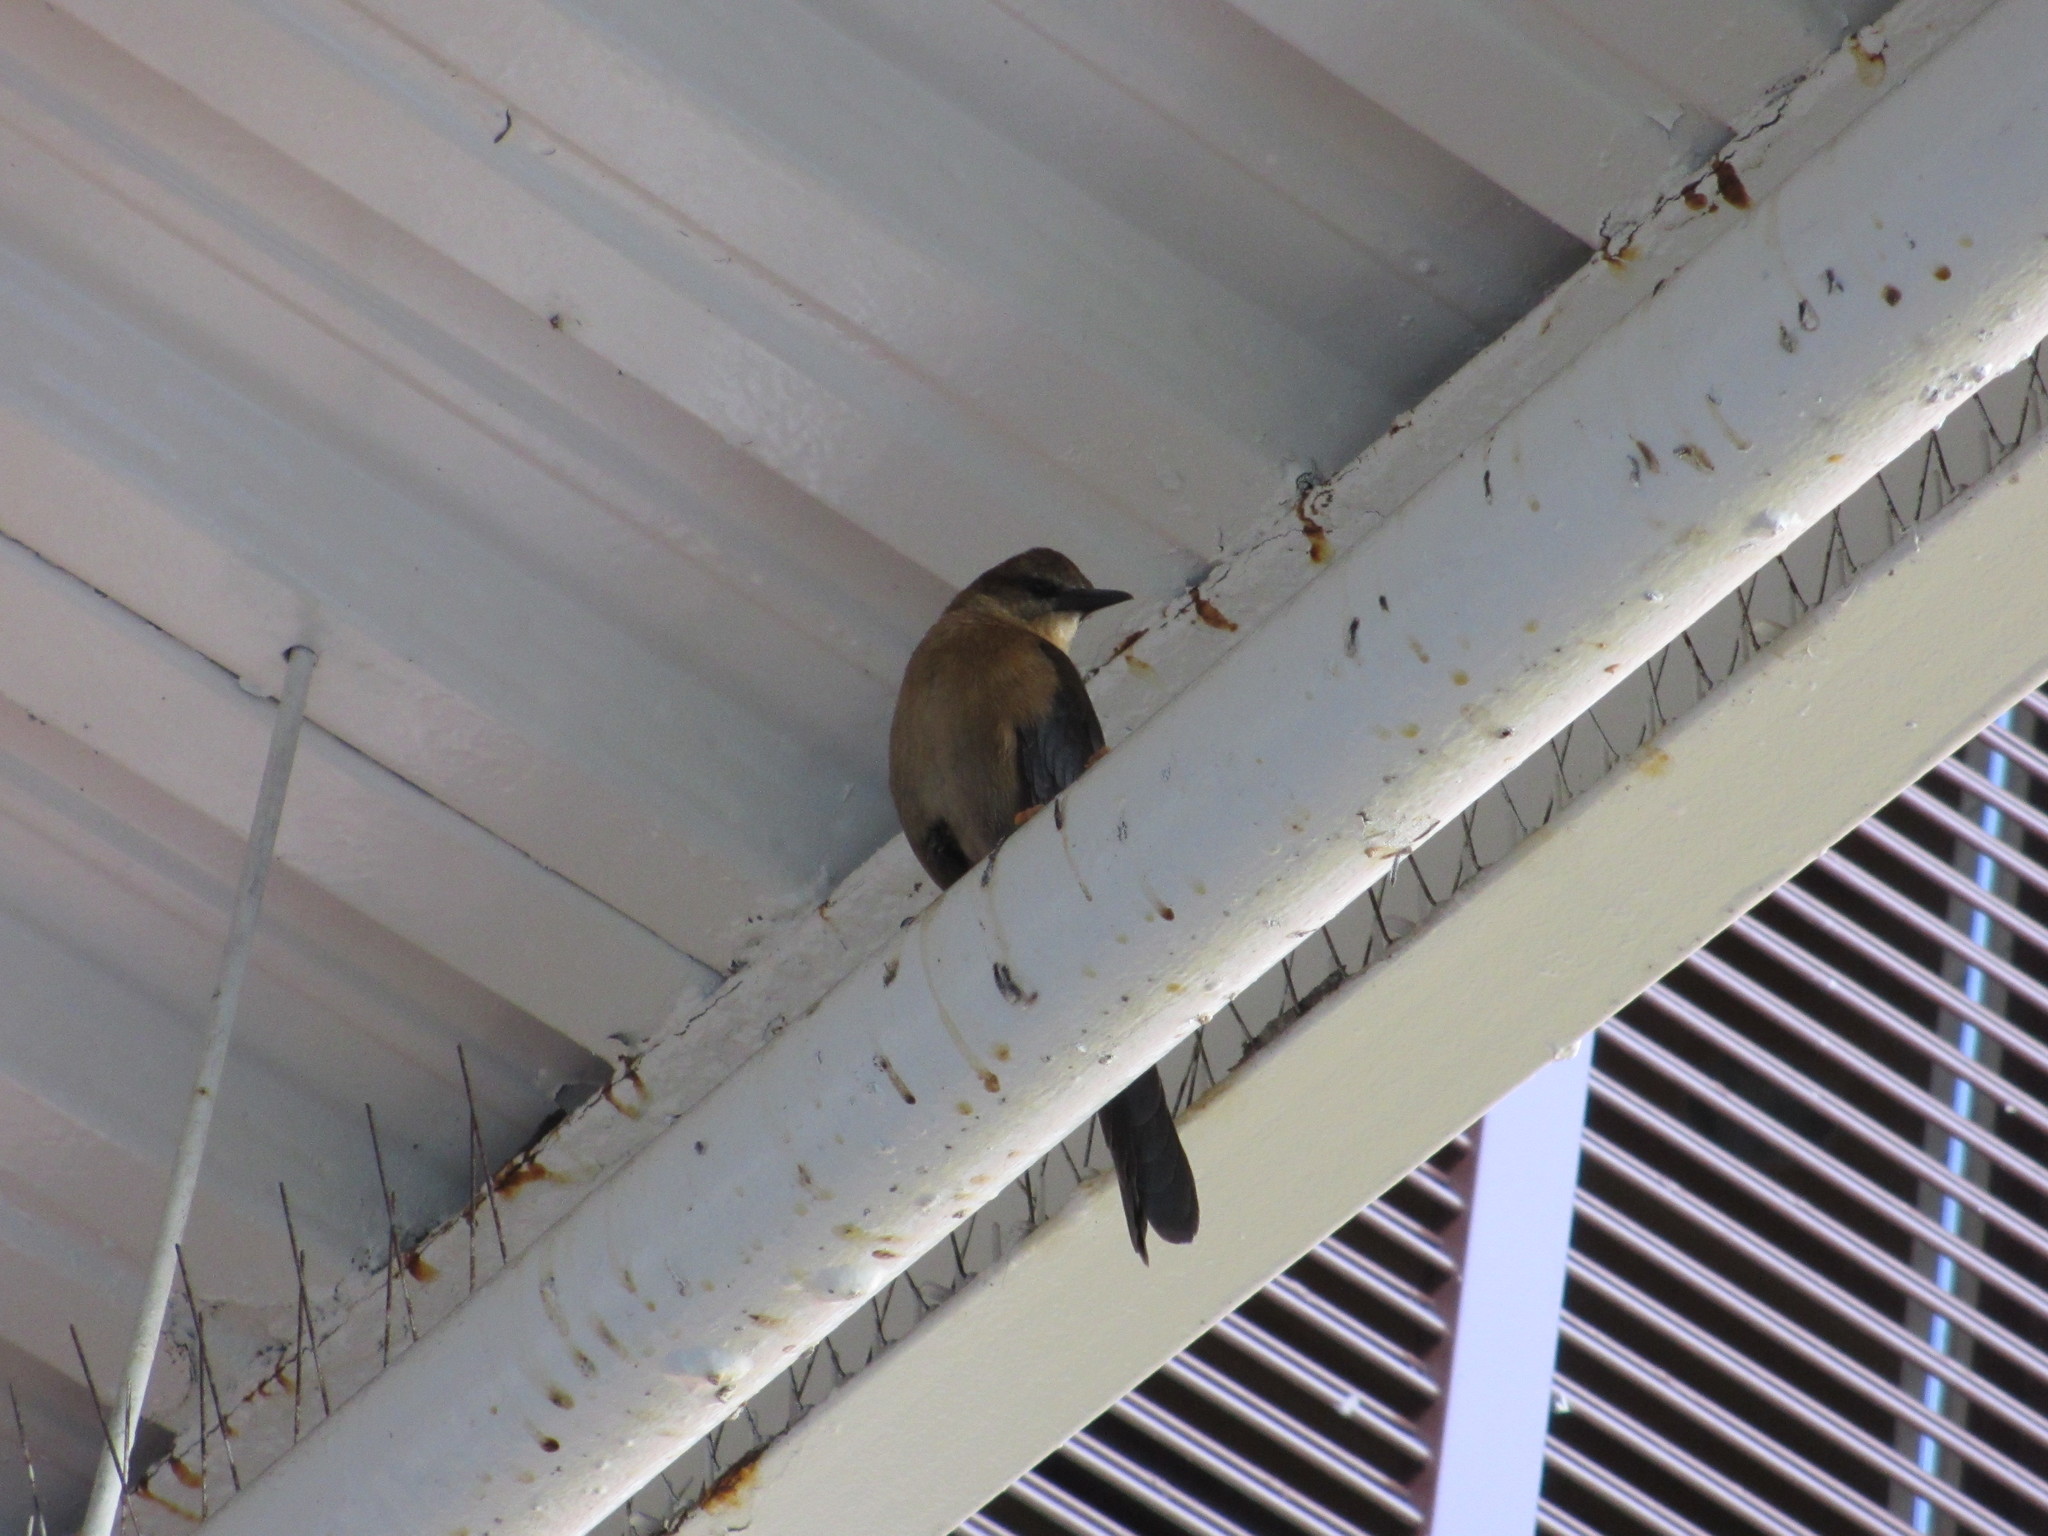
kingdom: Animalia
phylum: Chordata
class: Aves
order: Passeriformes
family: Icteridae
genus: Quiscalus
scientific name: Quiscalus major
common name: Boat-tailed grackle
